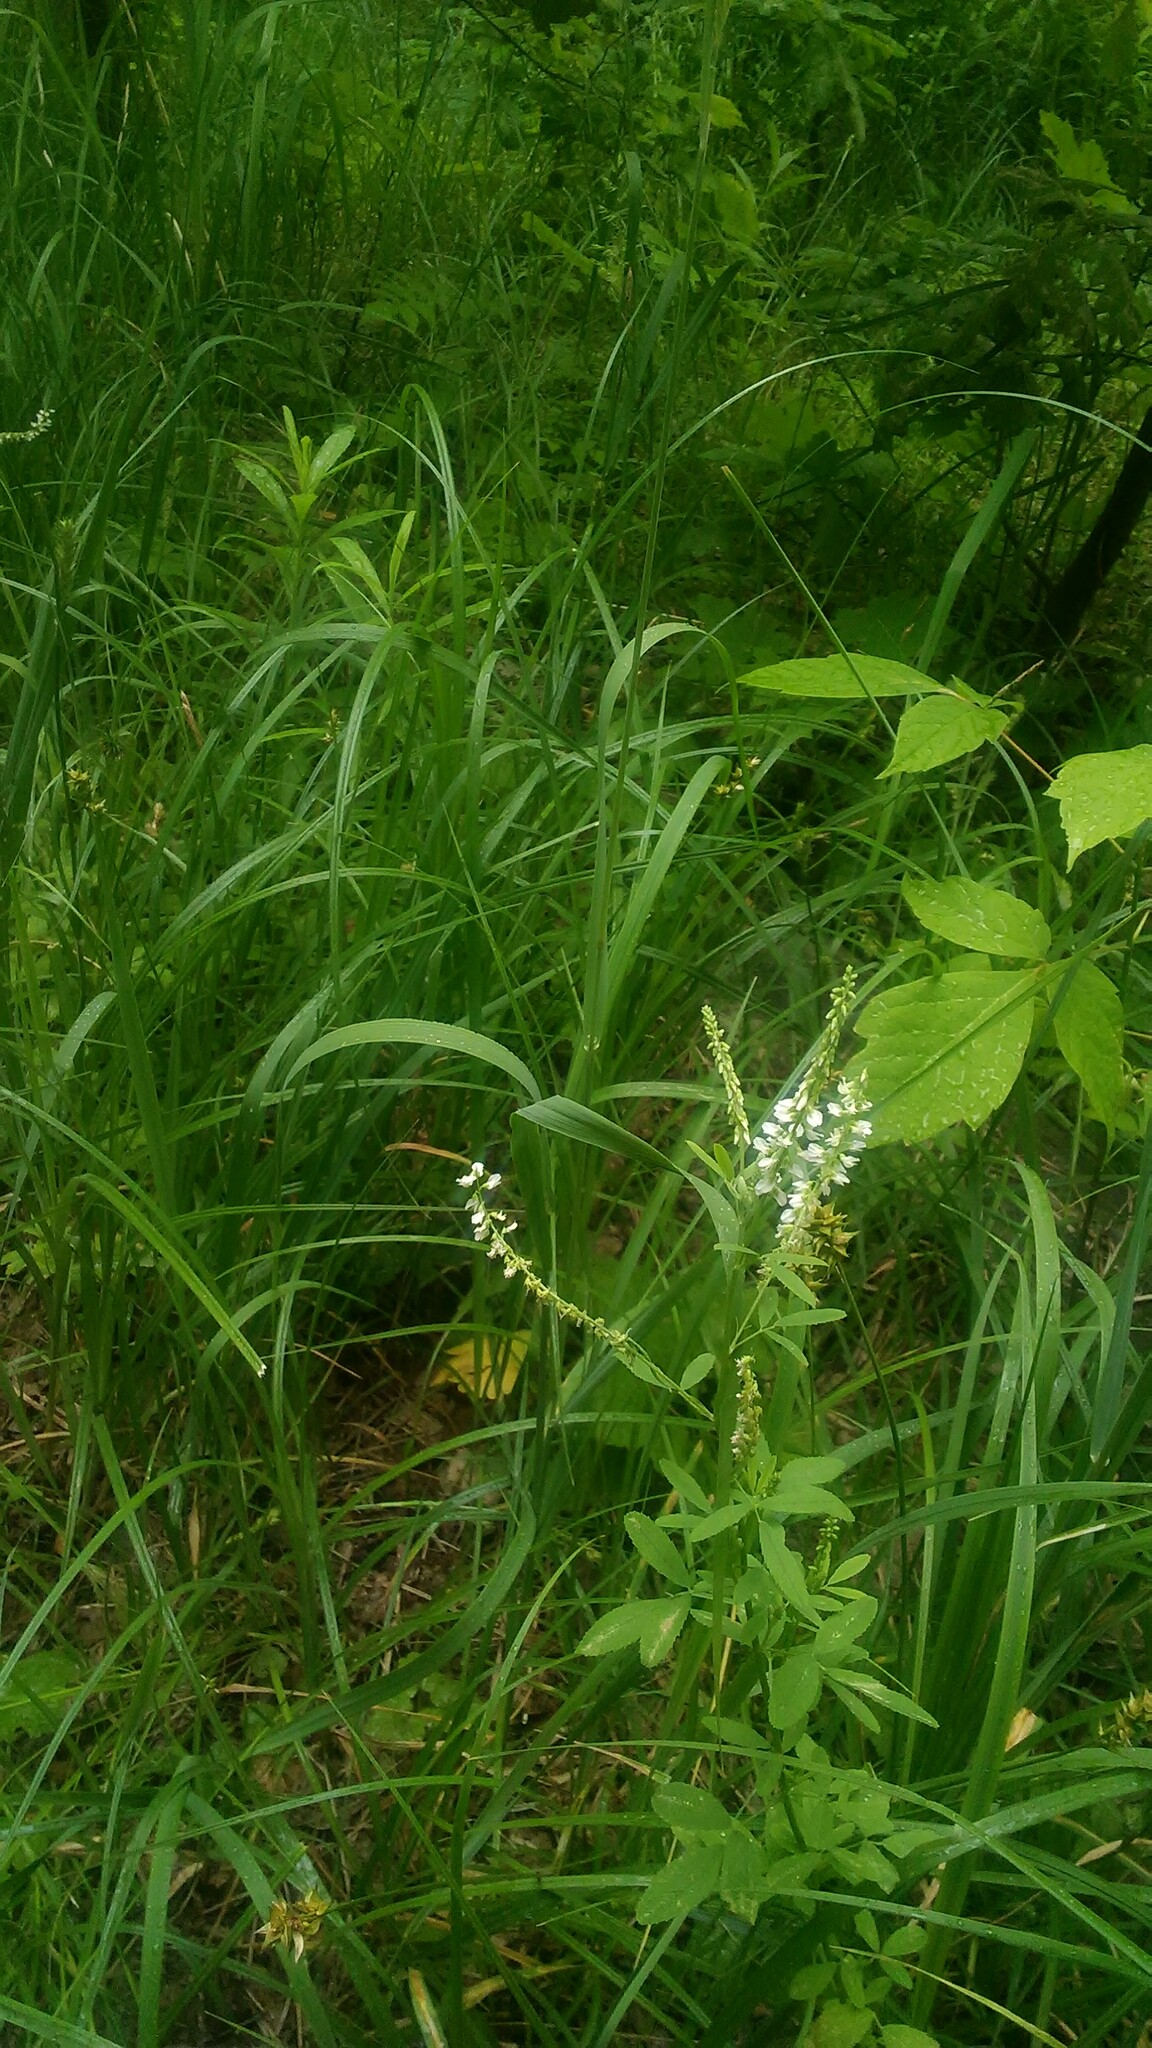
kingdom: Plantae
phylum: Tracheophyta
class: Magnoliopsida
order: Fabales
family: Fabaceae
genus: Melilotus
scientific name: Melilotus albus
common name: White melilot
